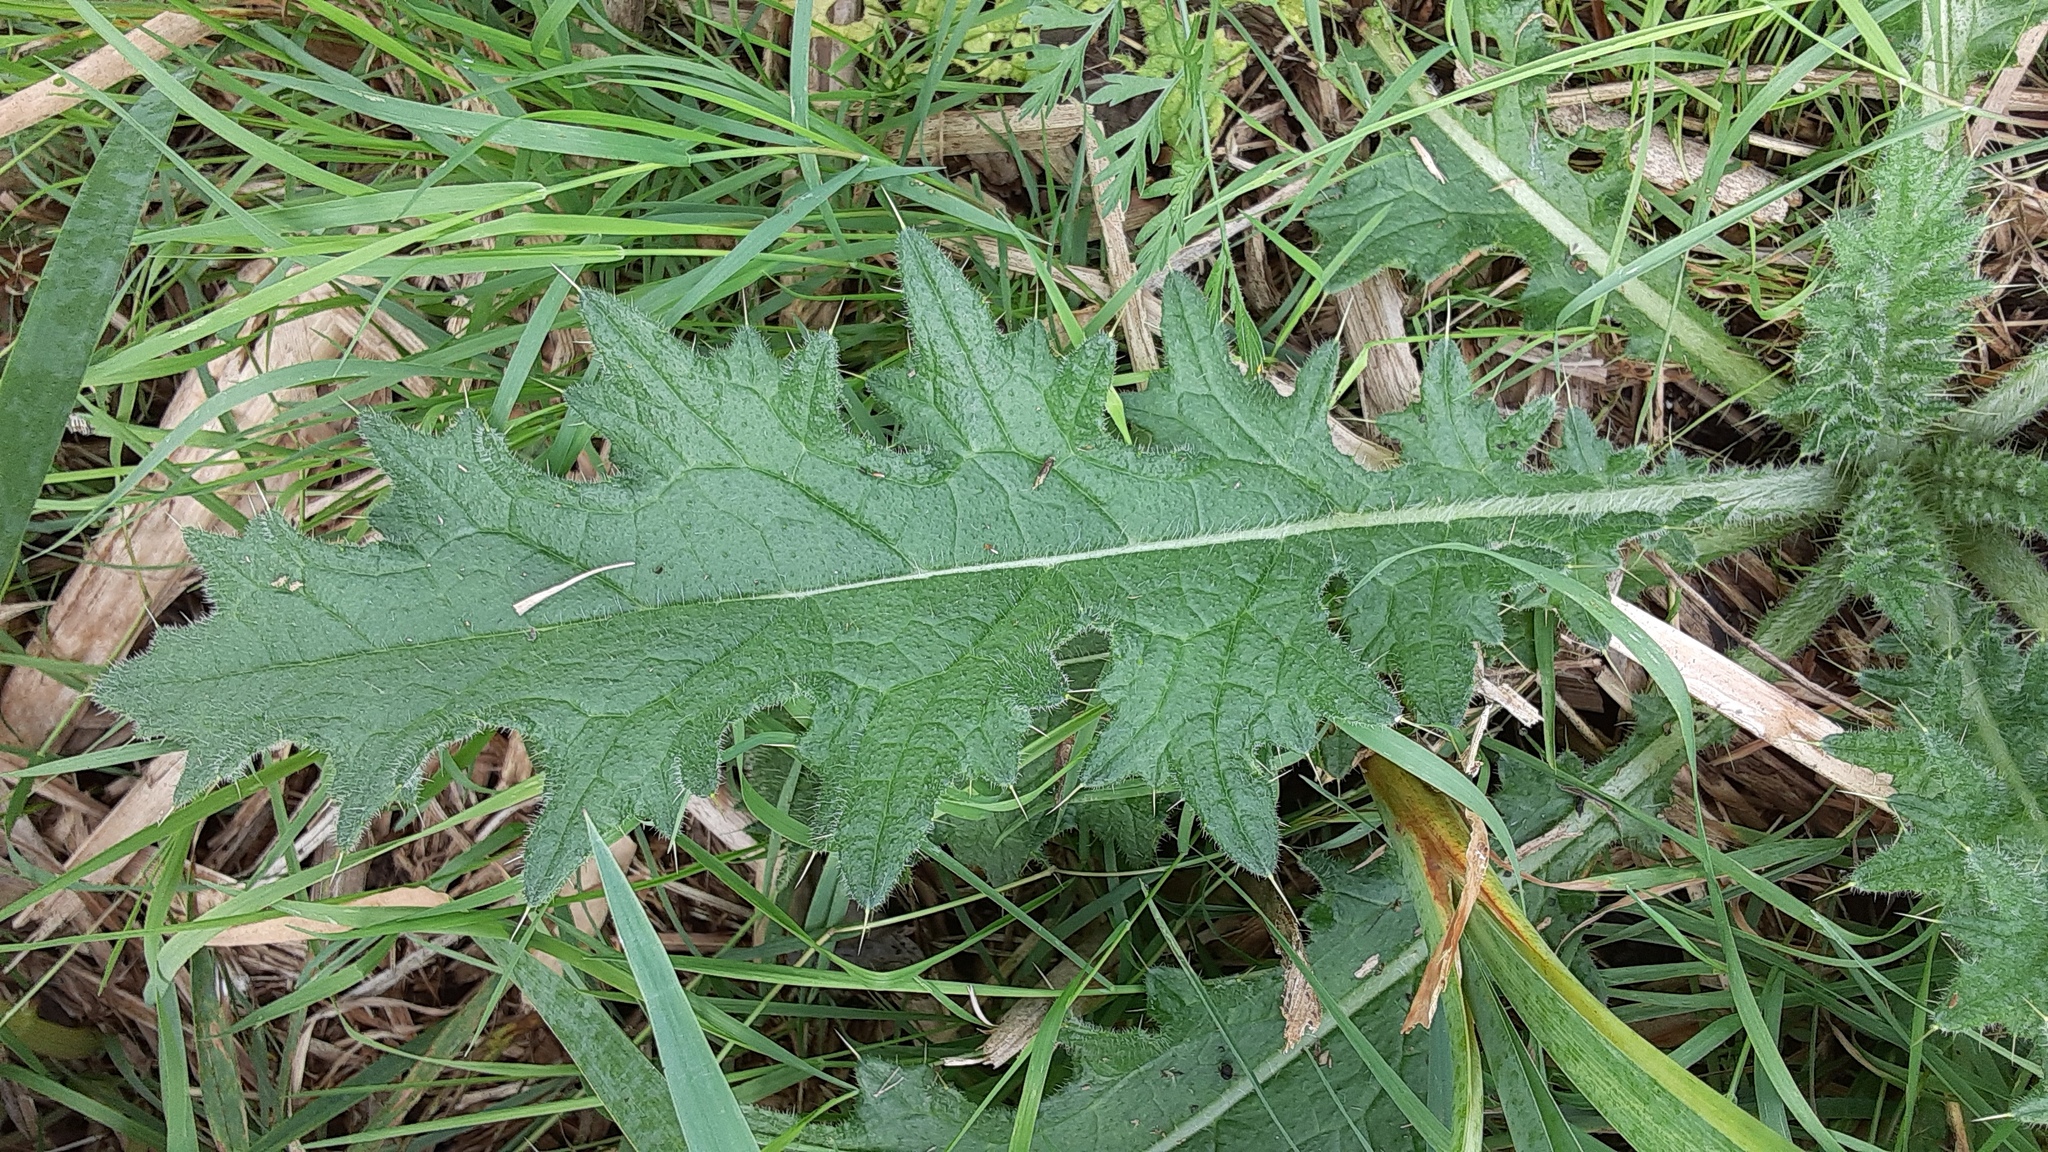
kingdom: Plantae
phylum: Tracheophyta
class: Magnoliopsida
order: Asterales
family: Asteraceae
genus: Cirsium
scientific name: Cirsium vulgare
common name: Bull thistle
